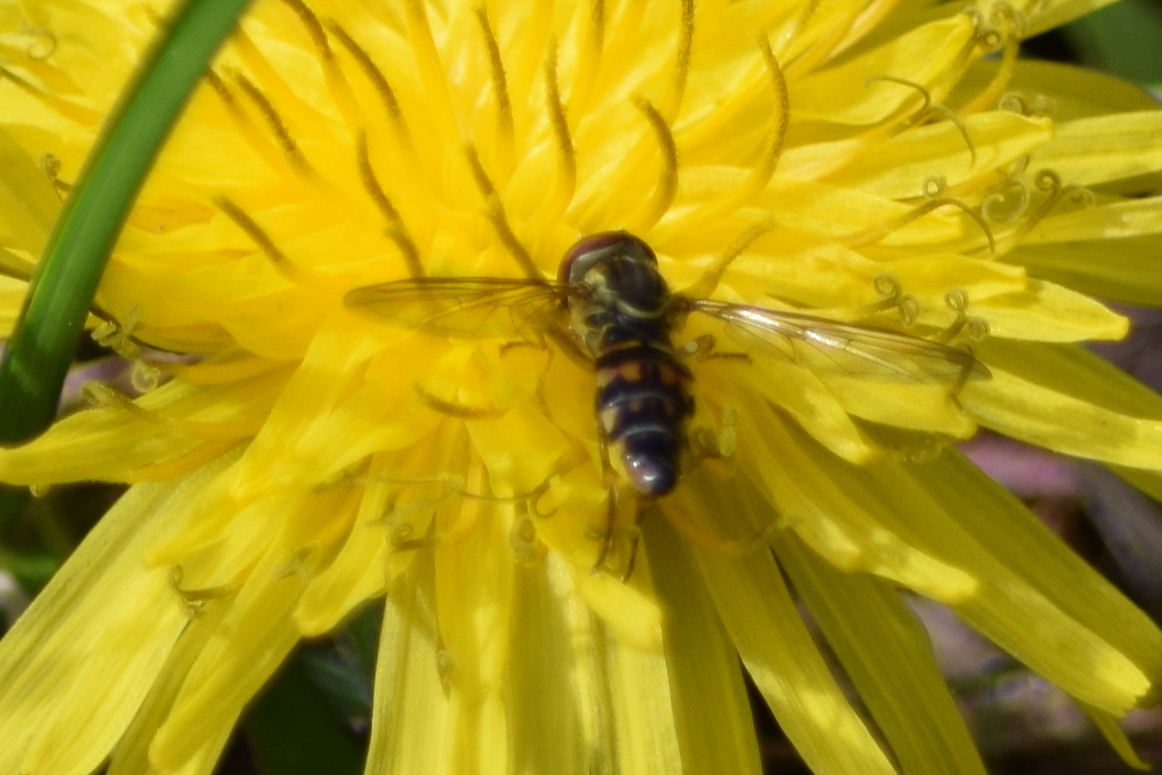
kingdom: Animalia
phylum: Arthropoda
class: Insecta
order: Diptera
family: Syrphidae
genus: Toxomerus
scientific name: Toxomerus geminatus
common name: Eastern calligrapher
